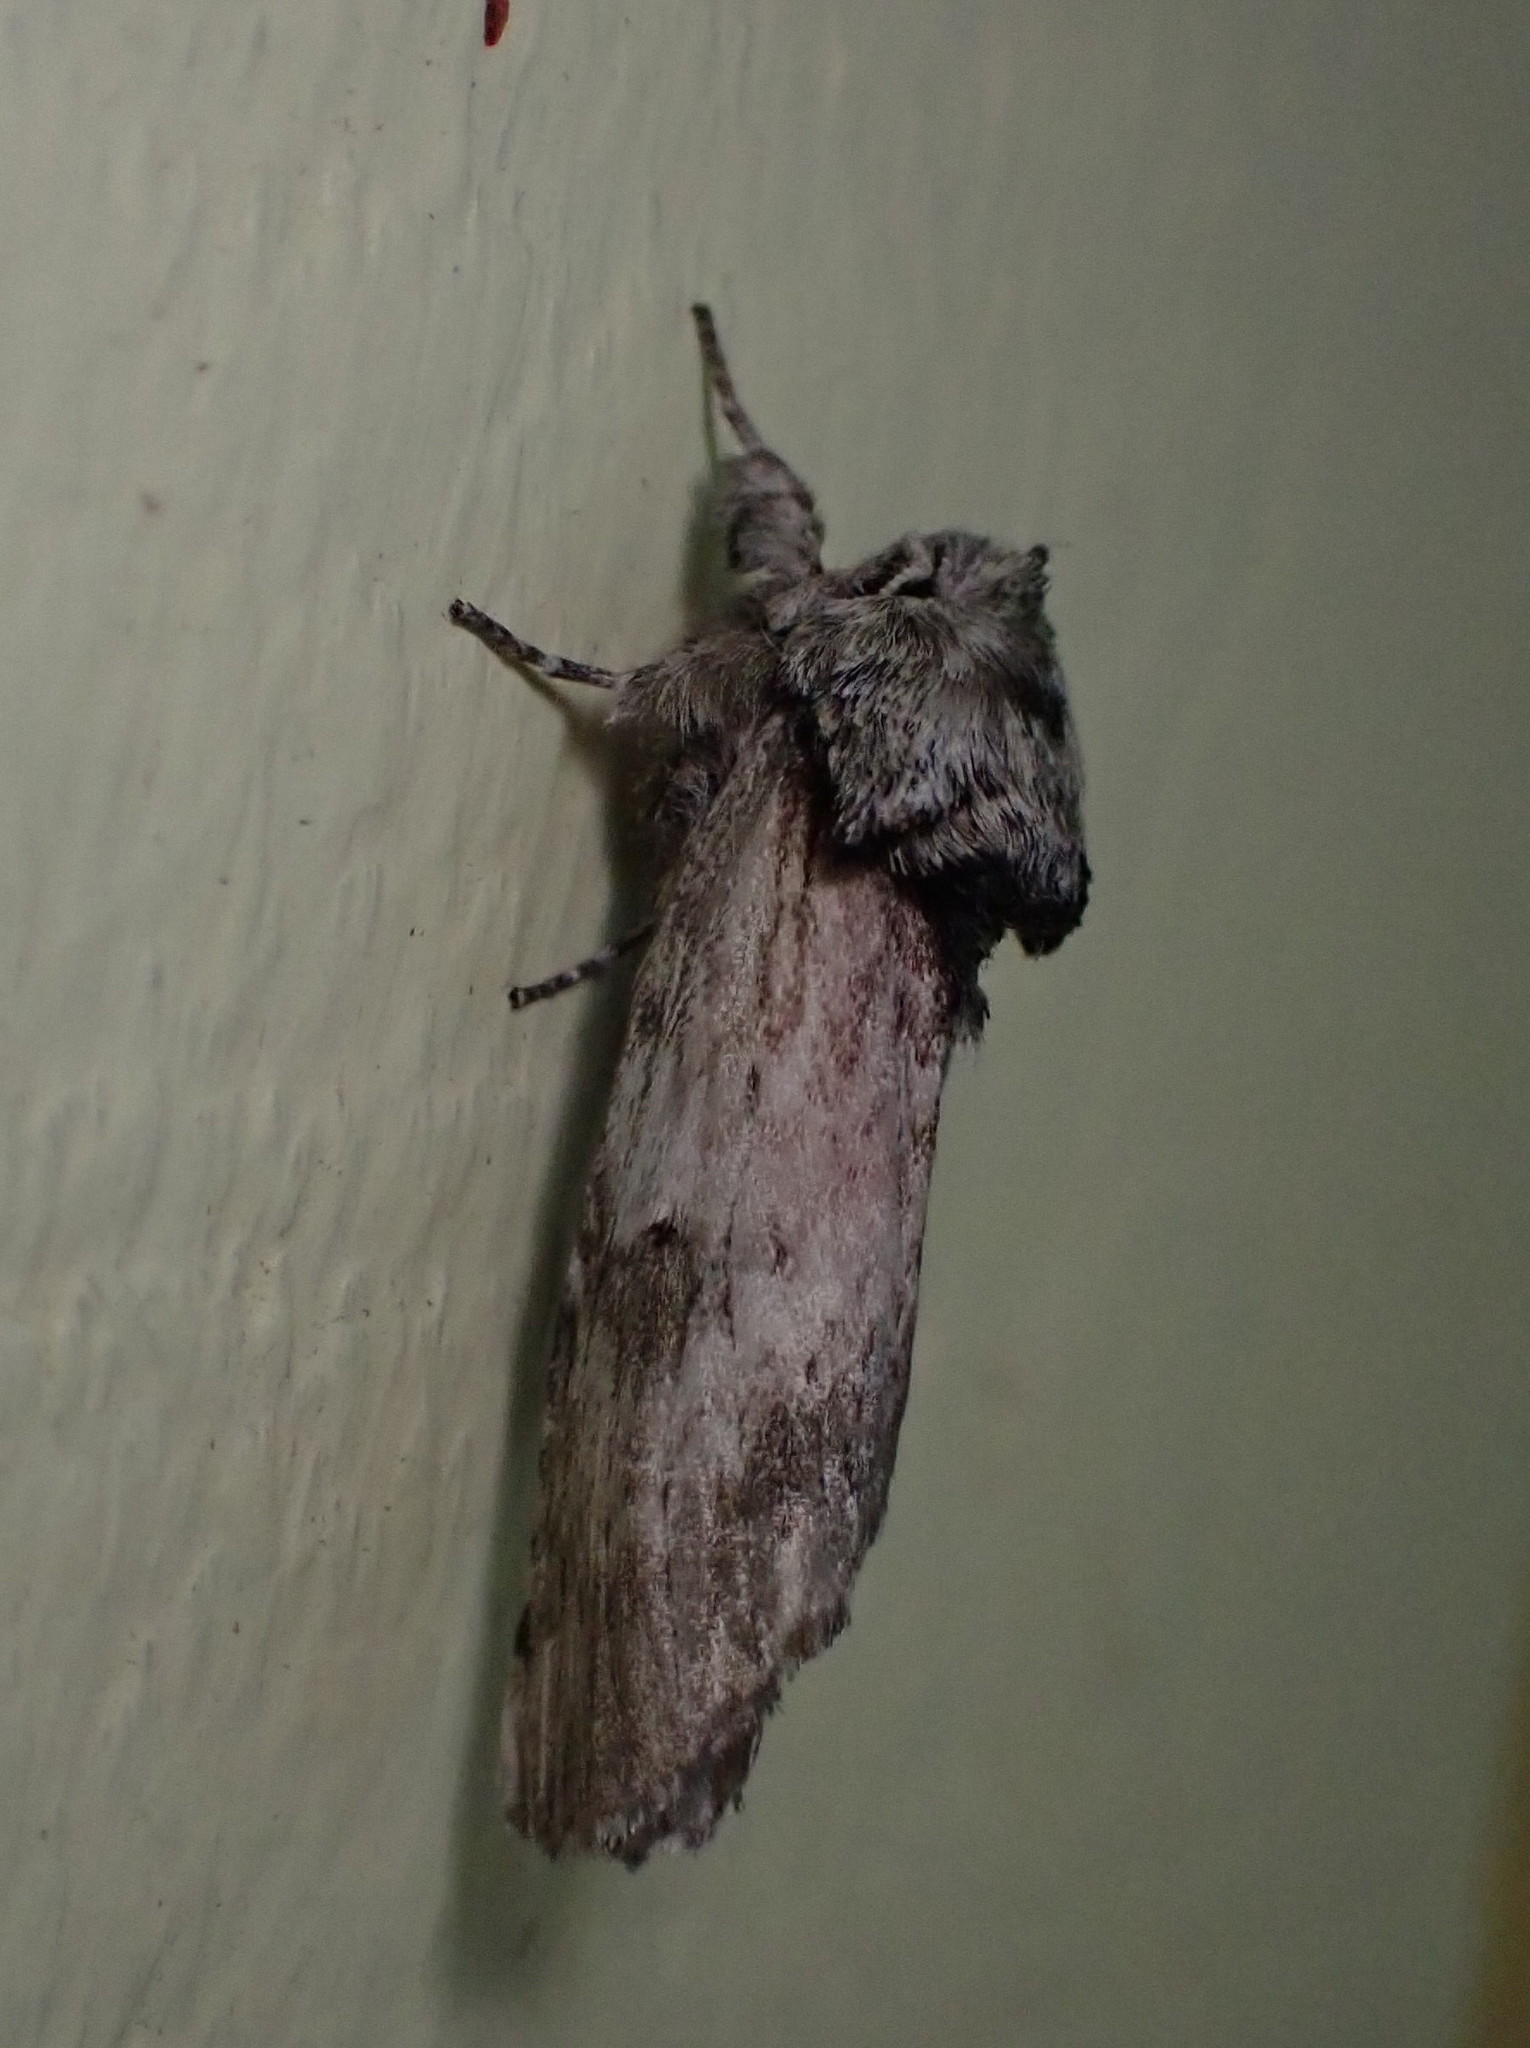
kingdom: Animalia
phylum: Arthropoda
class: Insecta
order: Lepidoptera
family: Notodontidae
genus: Schizura
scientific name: Schizura
